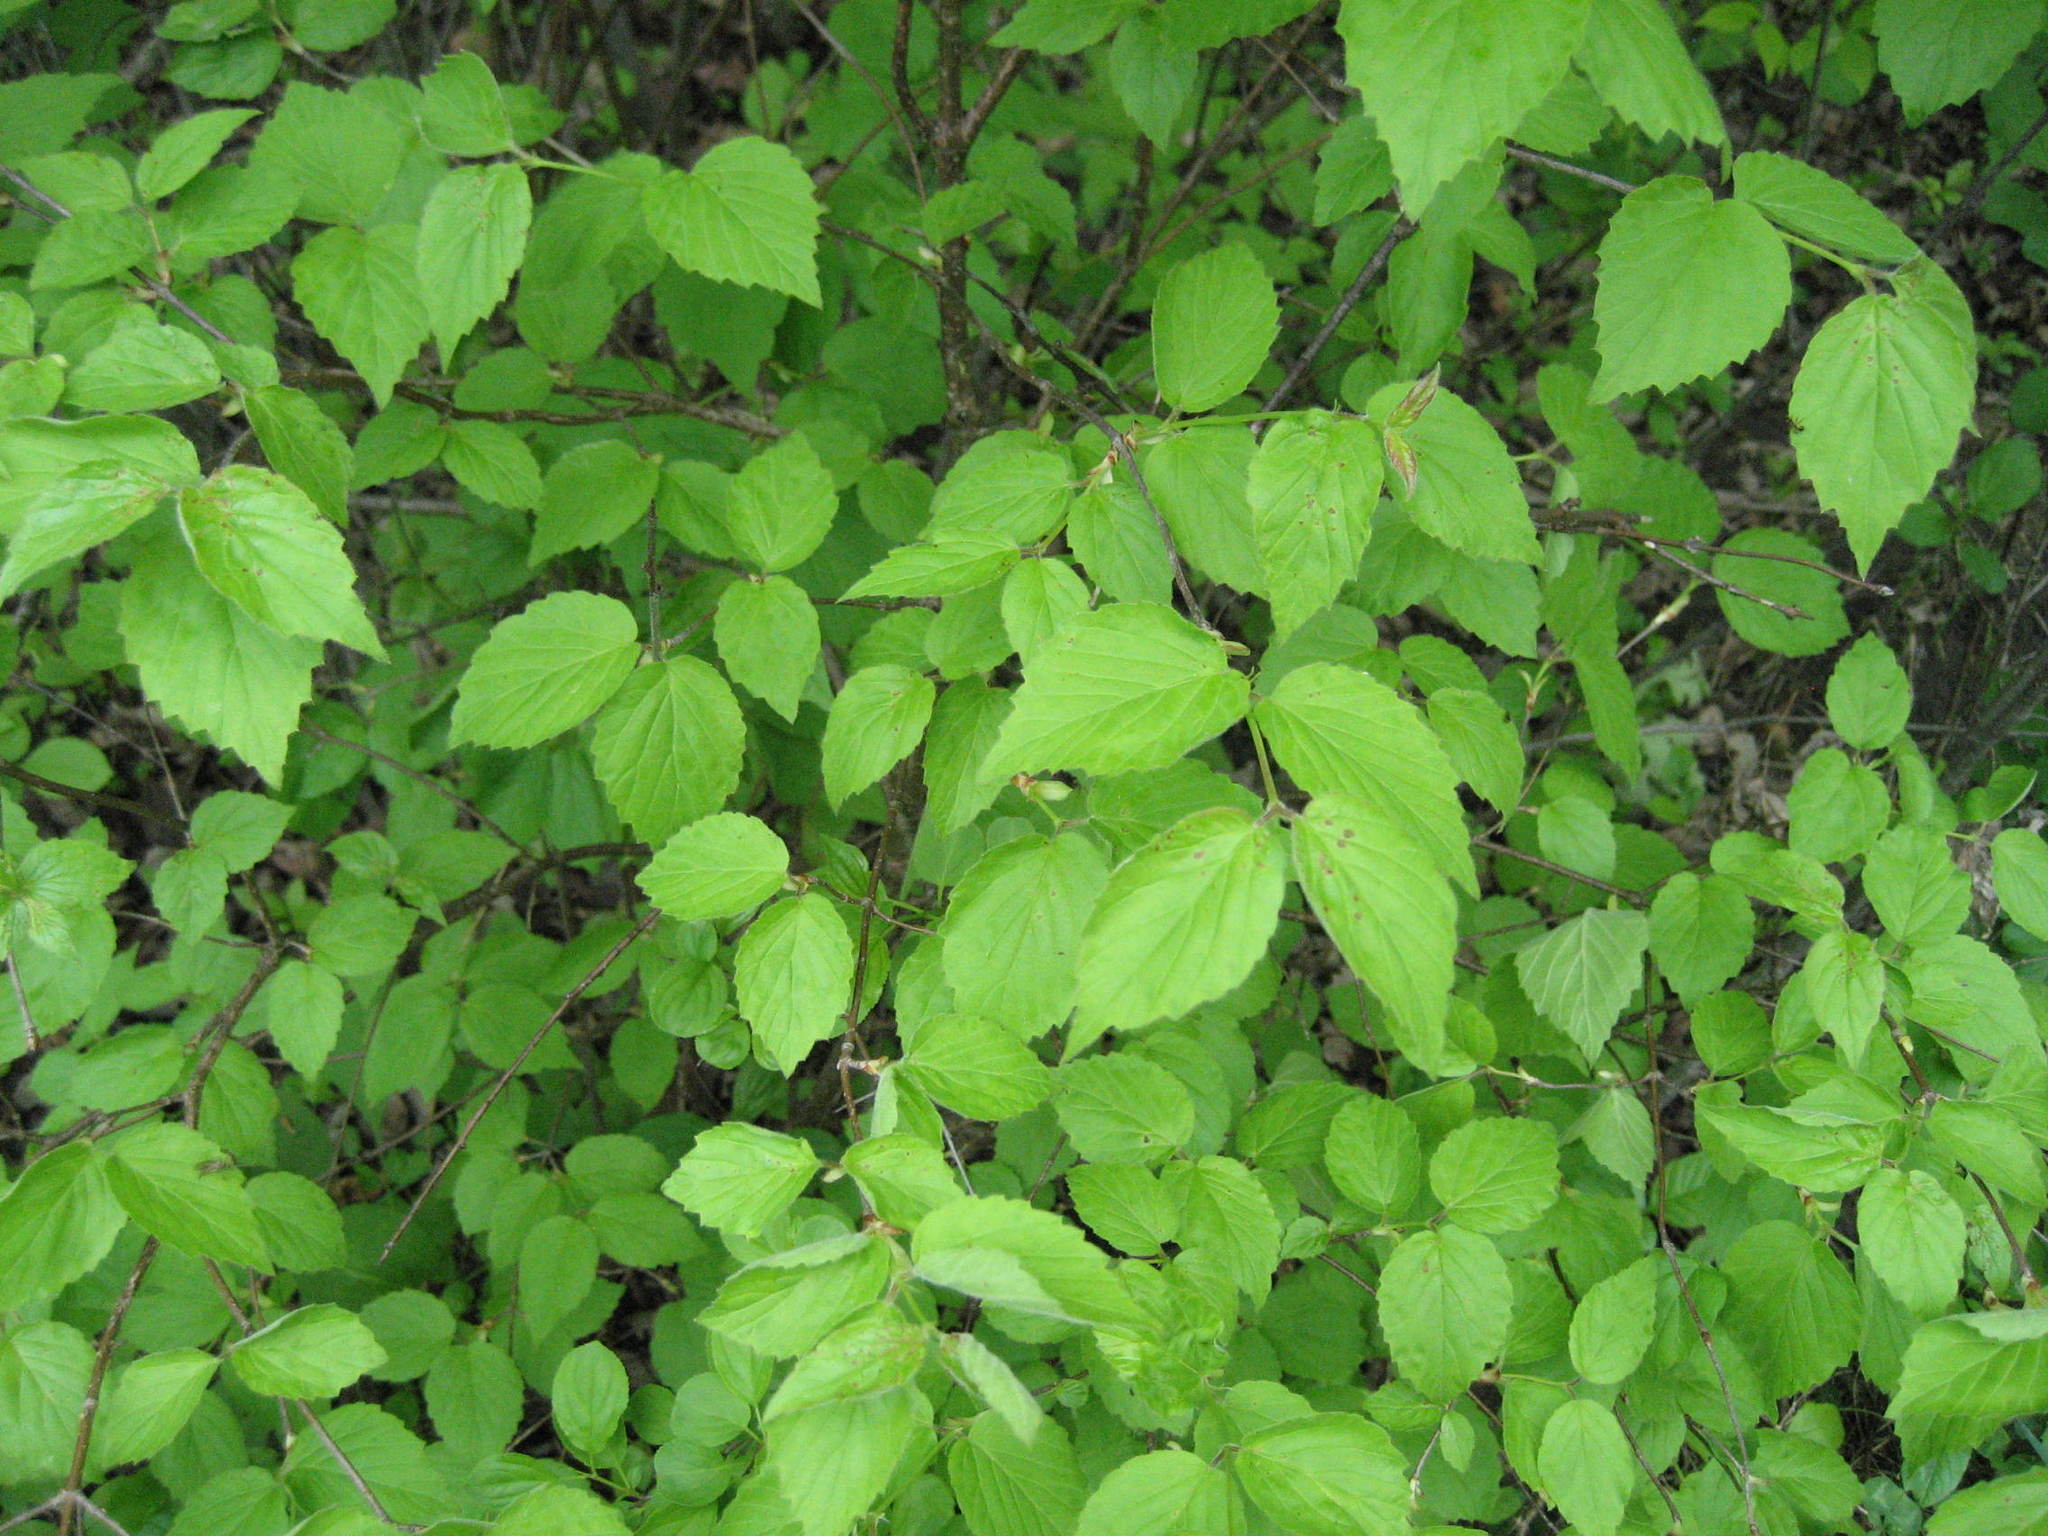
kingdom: Plantae
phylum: Tracheophyta
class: Magnoliopsida
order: Dipsacales
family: Viburnaceae
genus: Viburnum
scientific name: Viburnum rafinesqueanum
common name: Downy arrow-wood
